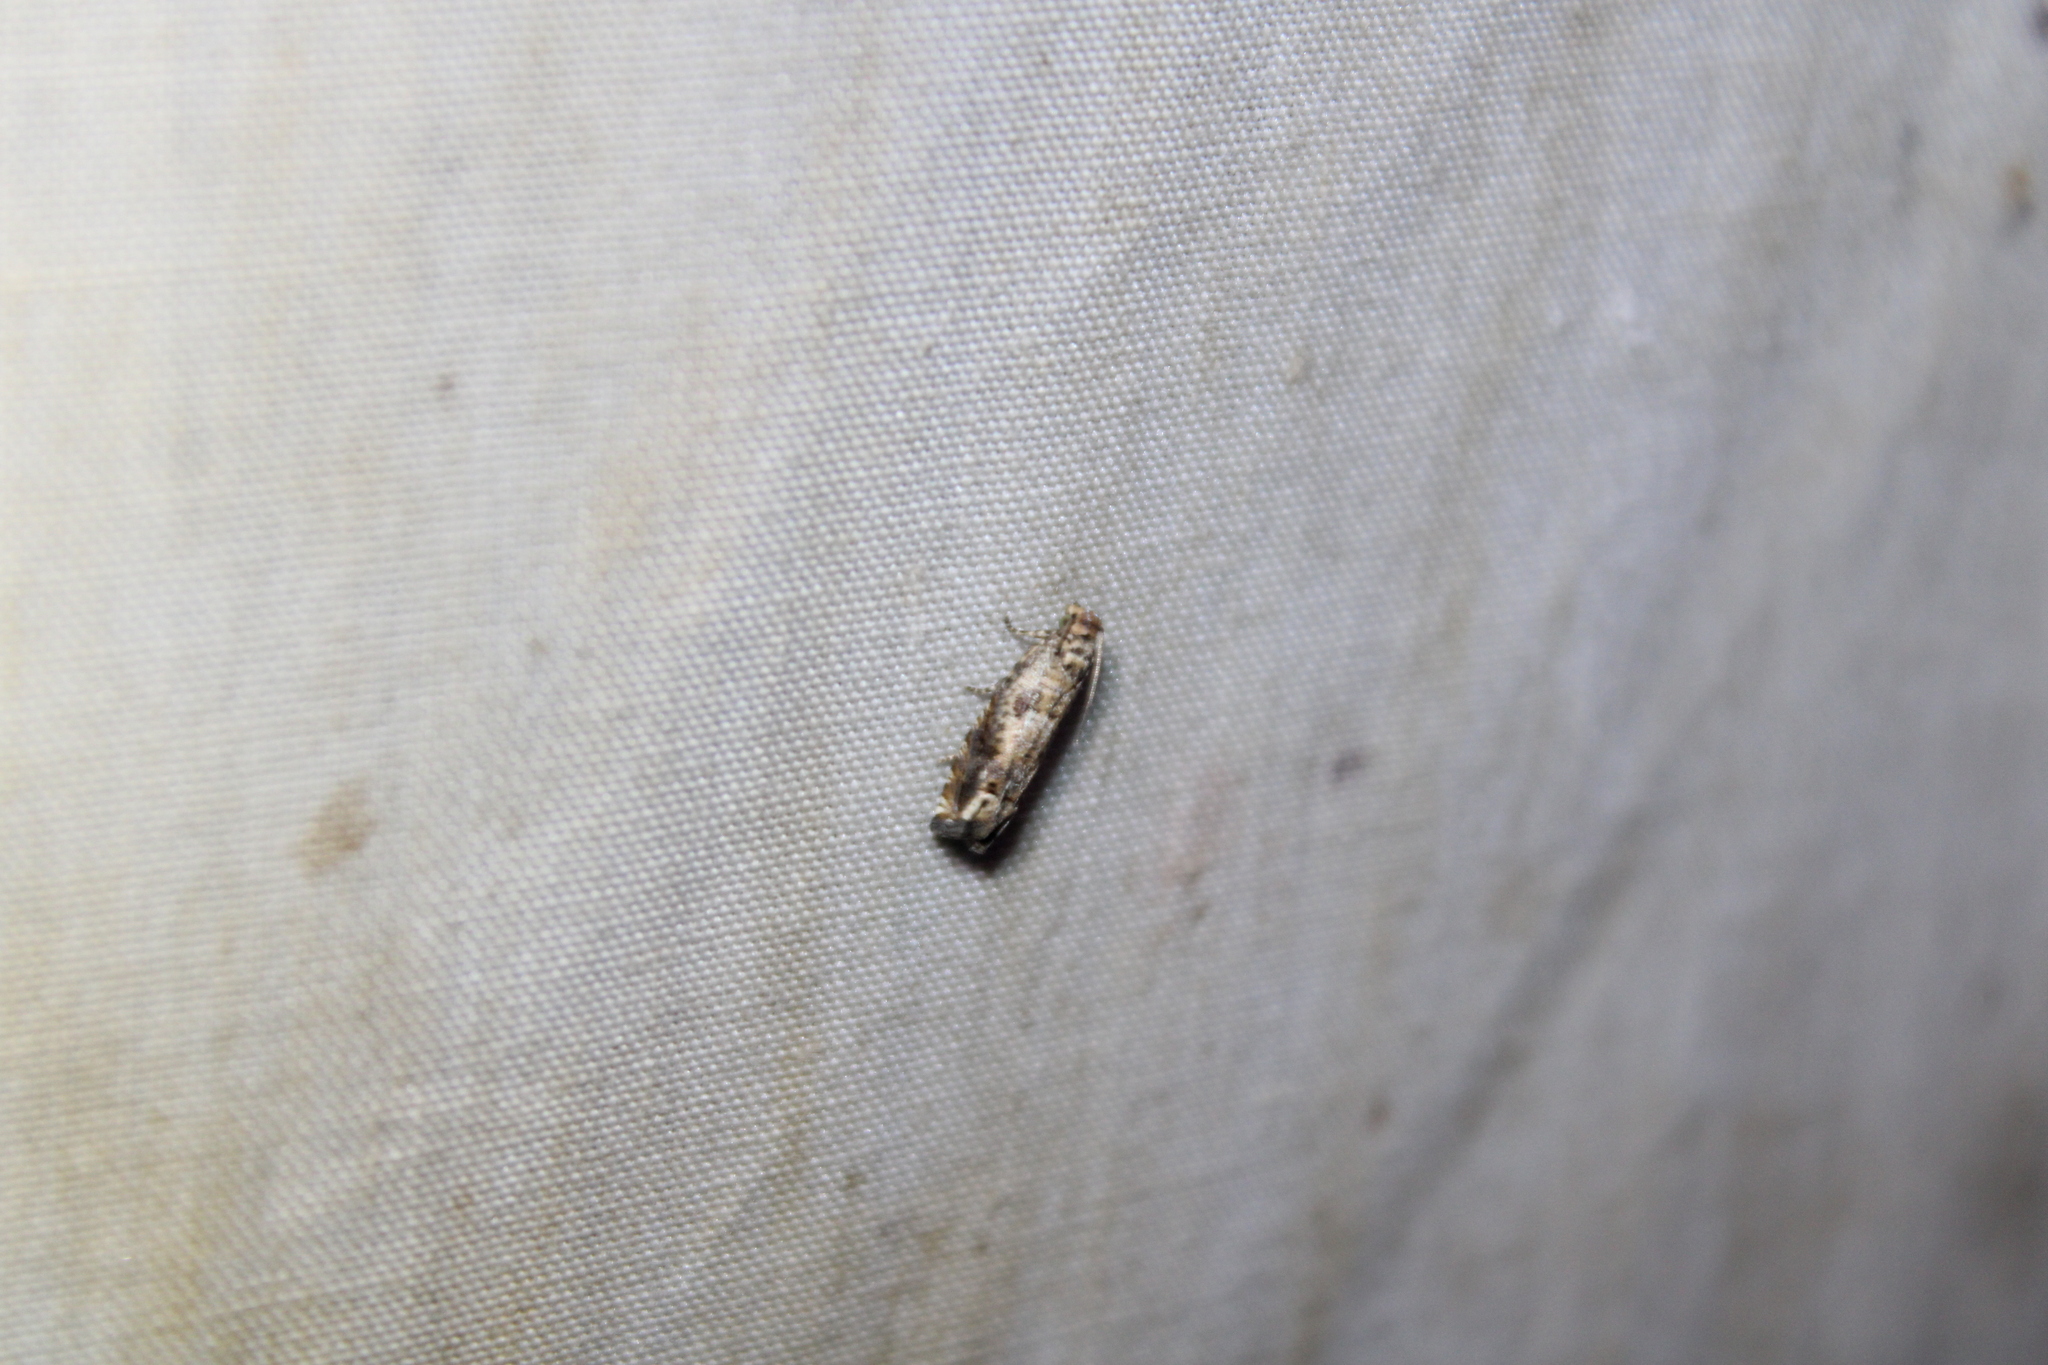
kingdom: Animalia
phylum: Arthropoda
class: Insecta
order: Lepidoptera
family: Tortricidae
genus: Epiblema
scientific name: Epiblema abruptana
